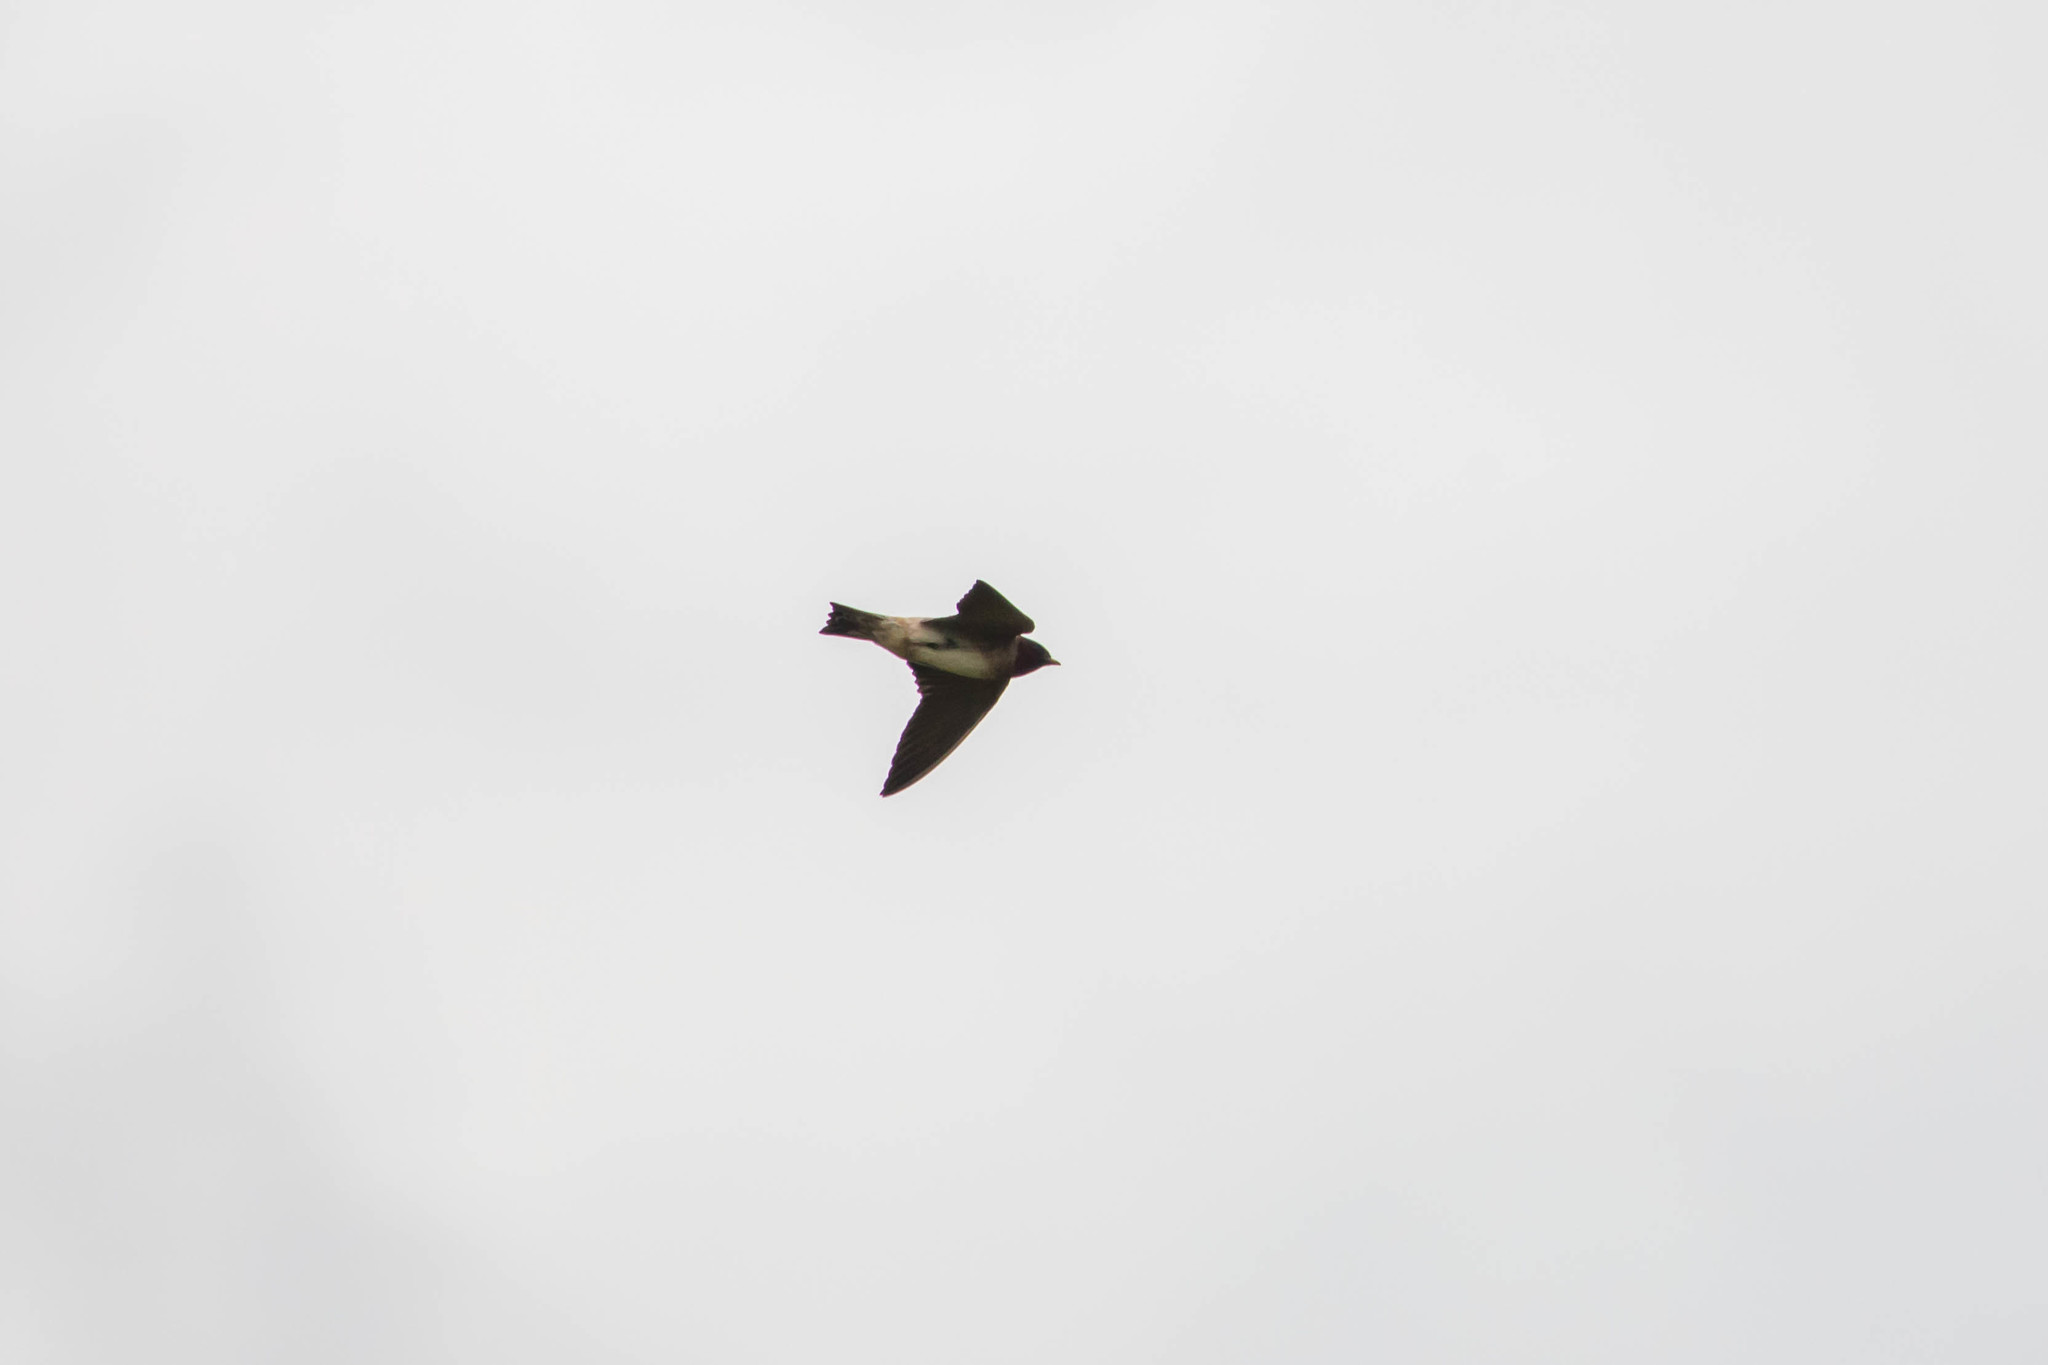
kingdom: Animalia
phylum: Chordata
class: Aves
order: Passeriformes
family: Hirundinidae
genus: Petrochelidon
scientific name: Petrochelidon pyrrhonota
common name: American cliff swallow
